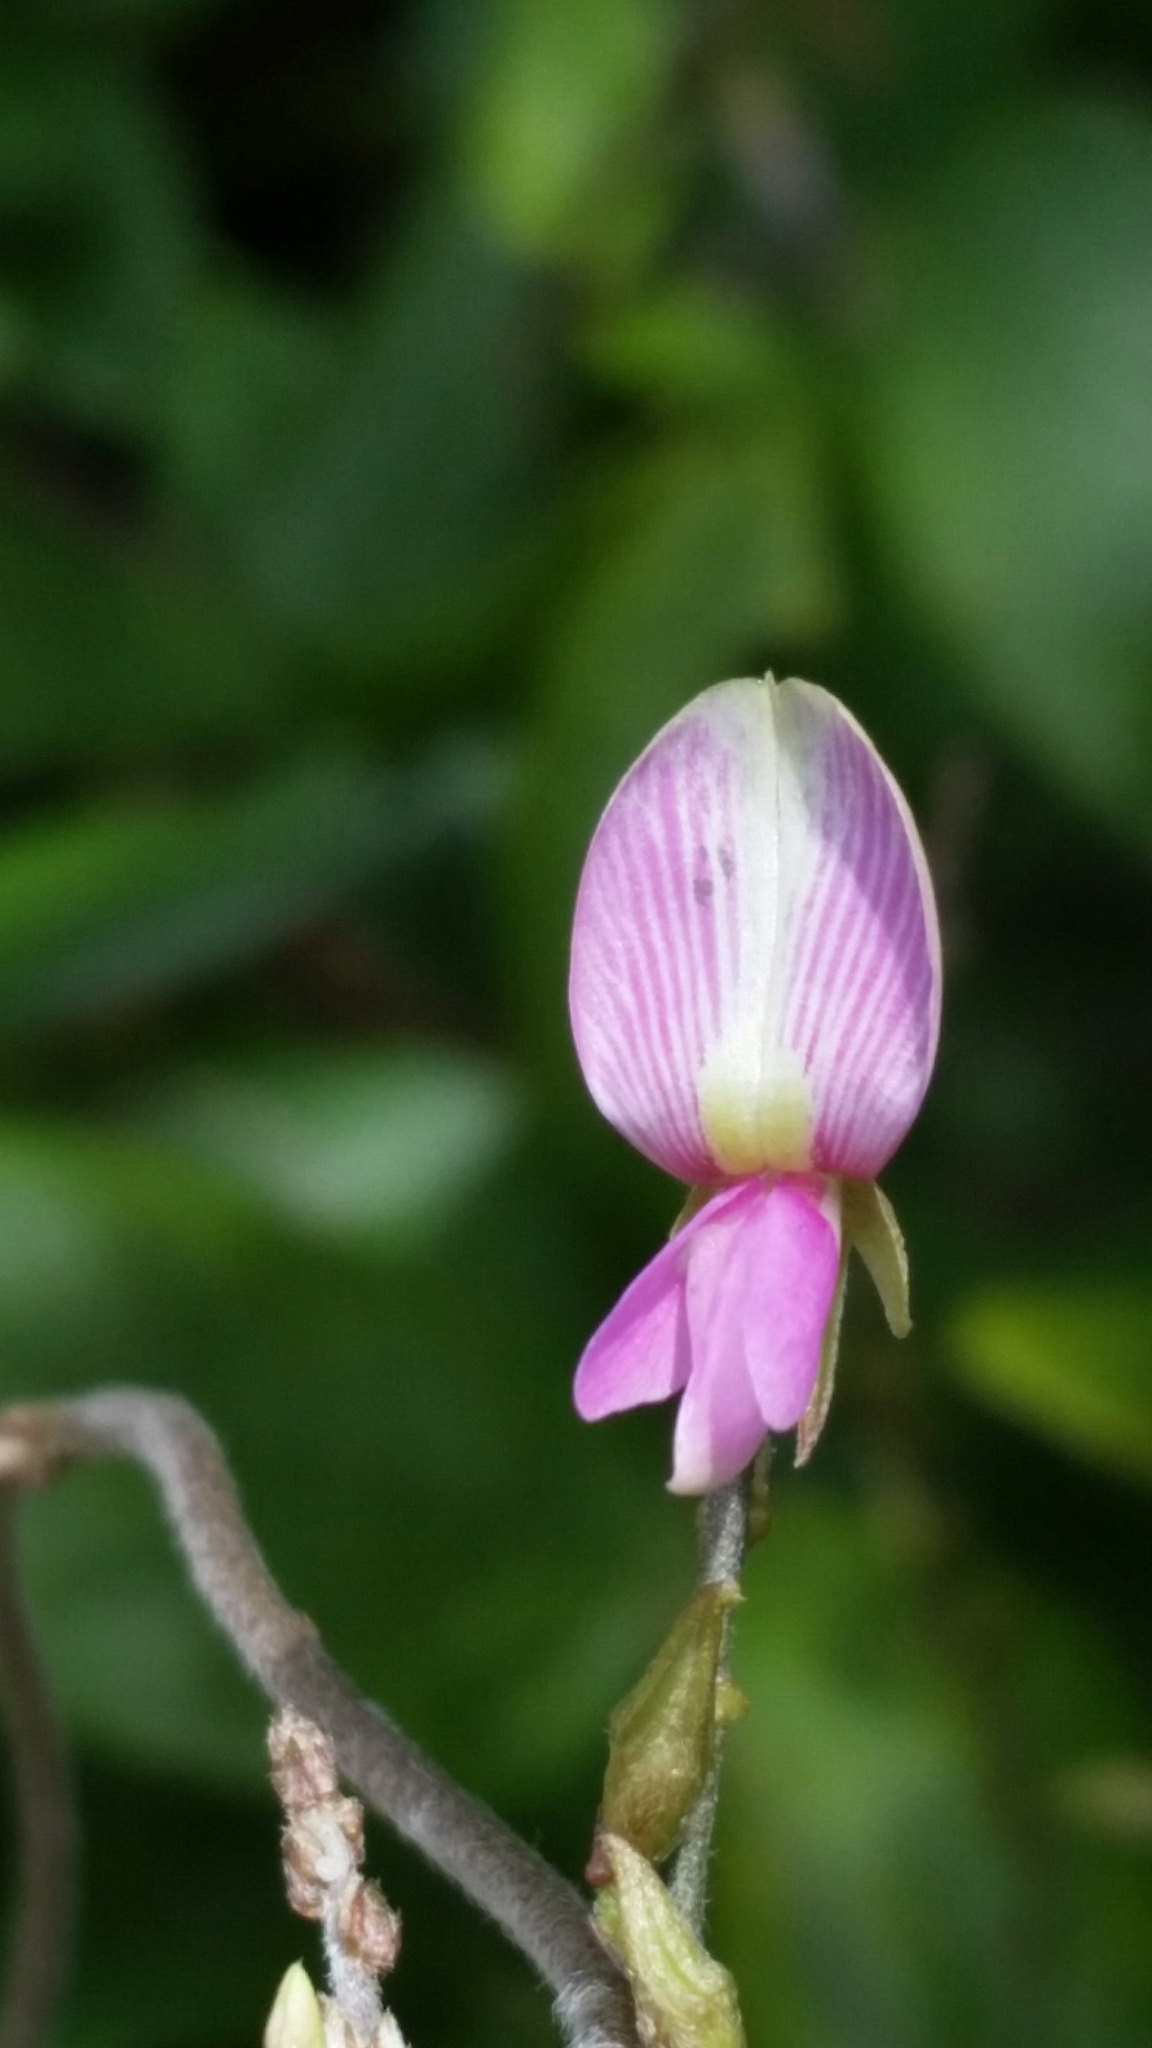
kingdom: Plantae
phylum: Tracheophyta
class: Magnoliopsida
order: Fabales
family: Fabaceae
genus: Galactia
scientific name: Galactia striata
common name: Florida hammock milkpea
